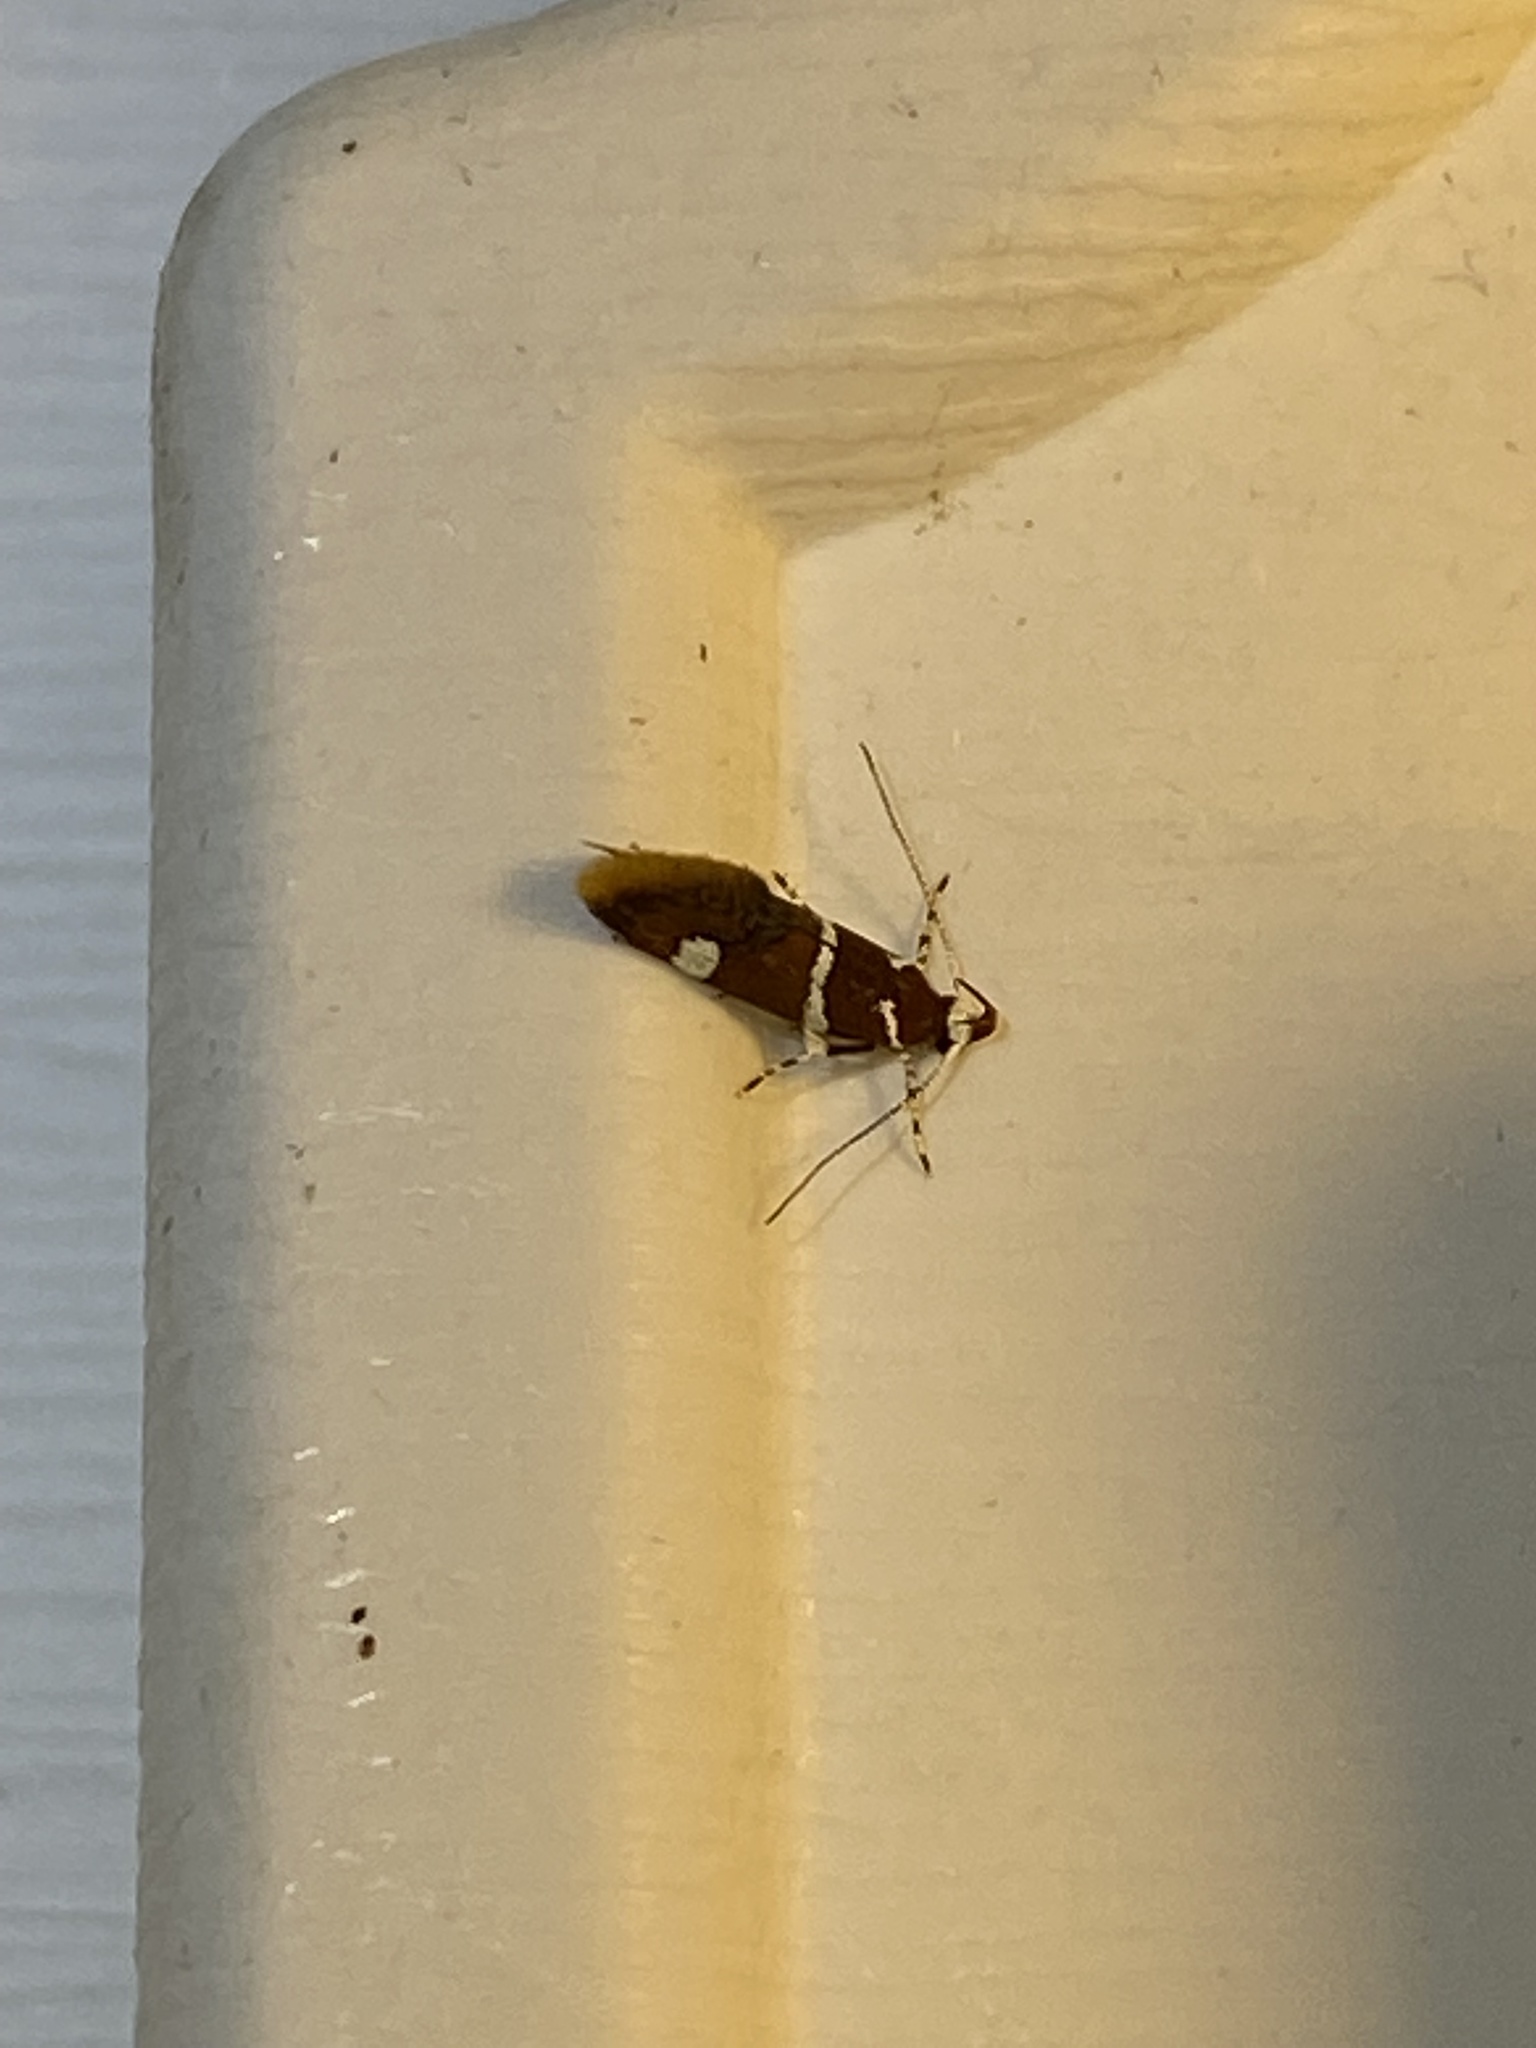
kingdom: Animalia
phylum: Arthropoda
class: Insecta
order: Lepidoptera
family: Oecophoridae
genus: Promalactis
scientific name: Promalactis suzukiella
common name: Moth
